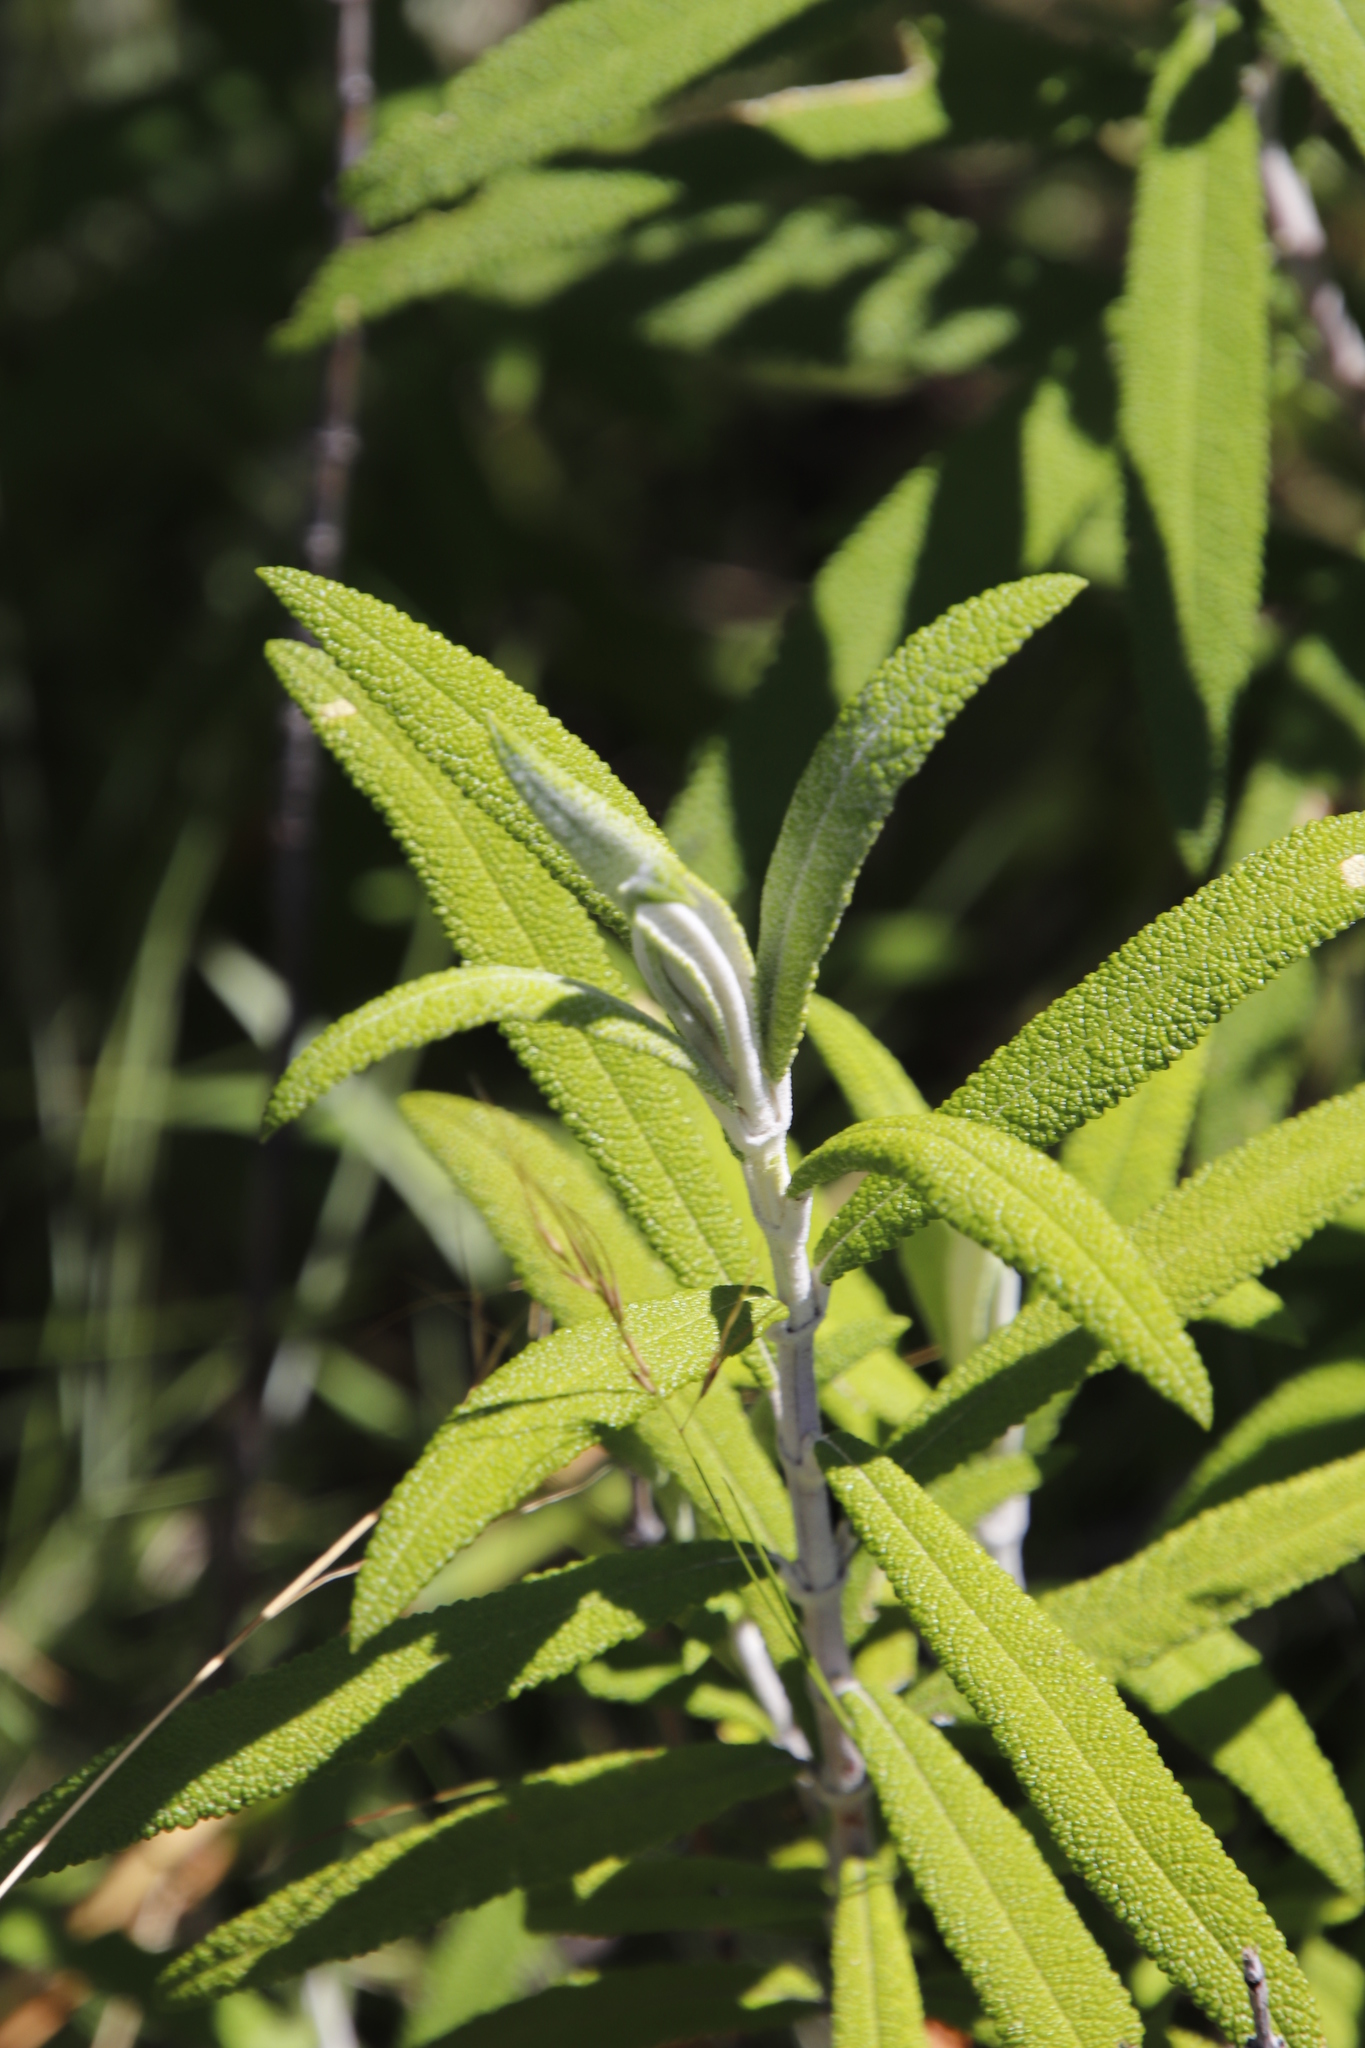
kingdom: Plantae
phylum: Tracheophyta
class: Magnoliopsida
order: Lamiales
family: Scrophulariaceae
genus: Buddleja
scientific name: Buddleja loricata
